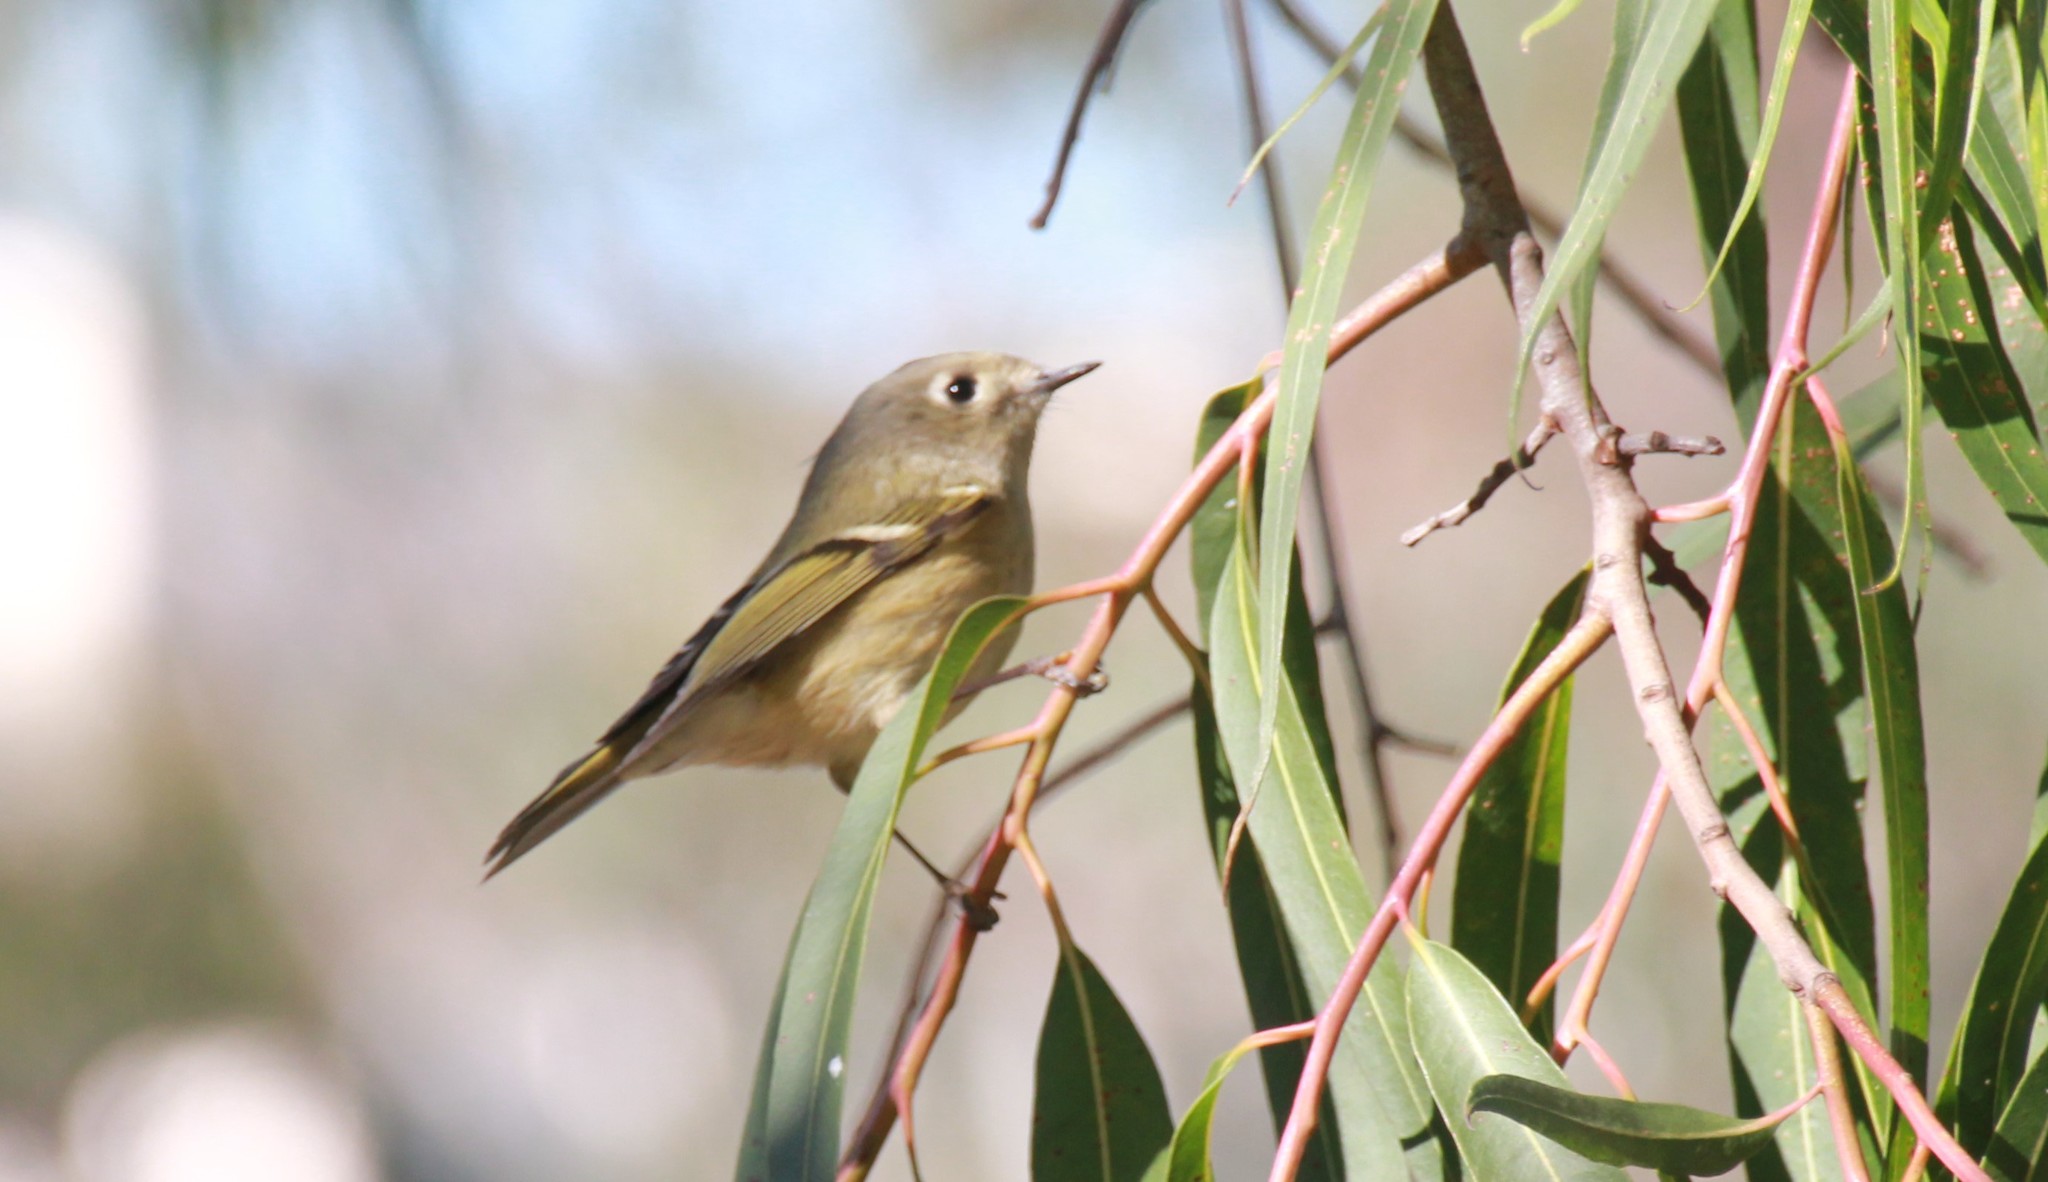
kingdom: Animalia
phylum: Chordata
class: Aves
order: Passeriformes
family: Regulidae
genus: Regulus
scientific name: Regulus calendula
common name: Ruby-crowned kinglet
